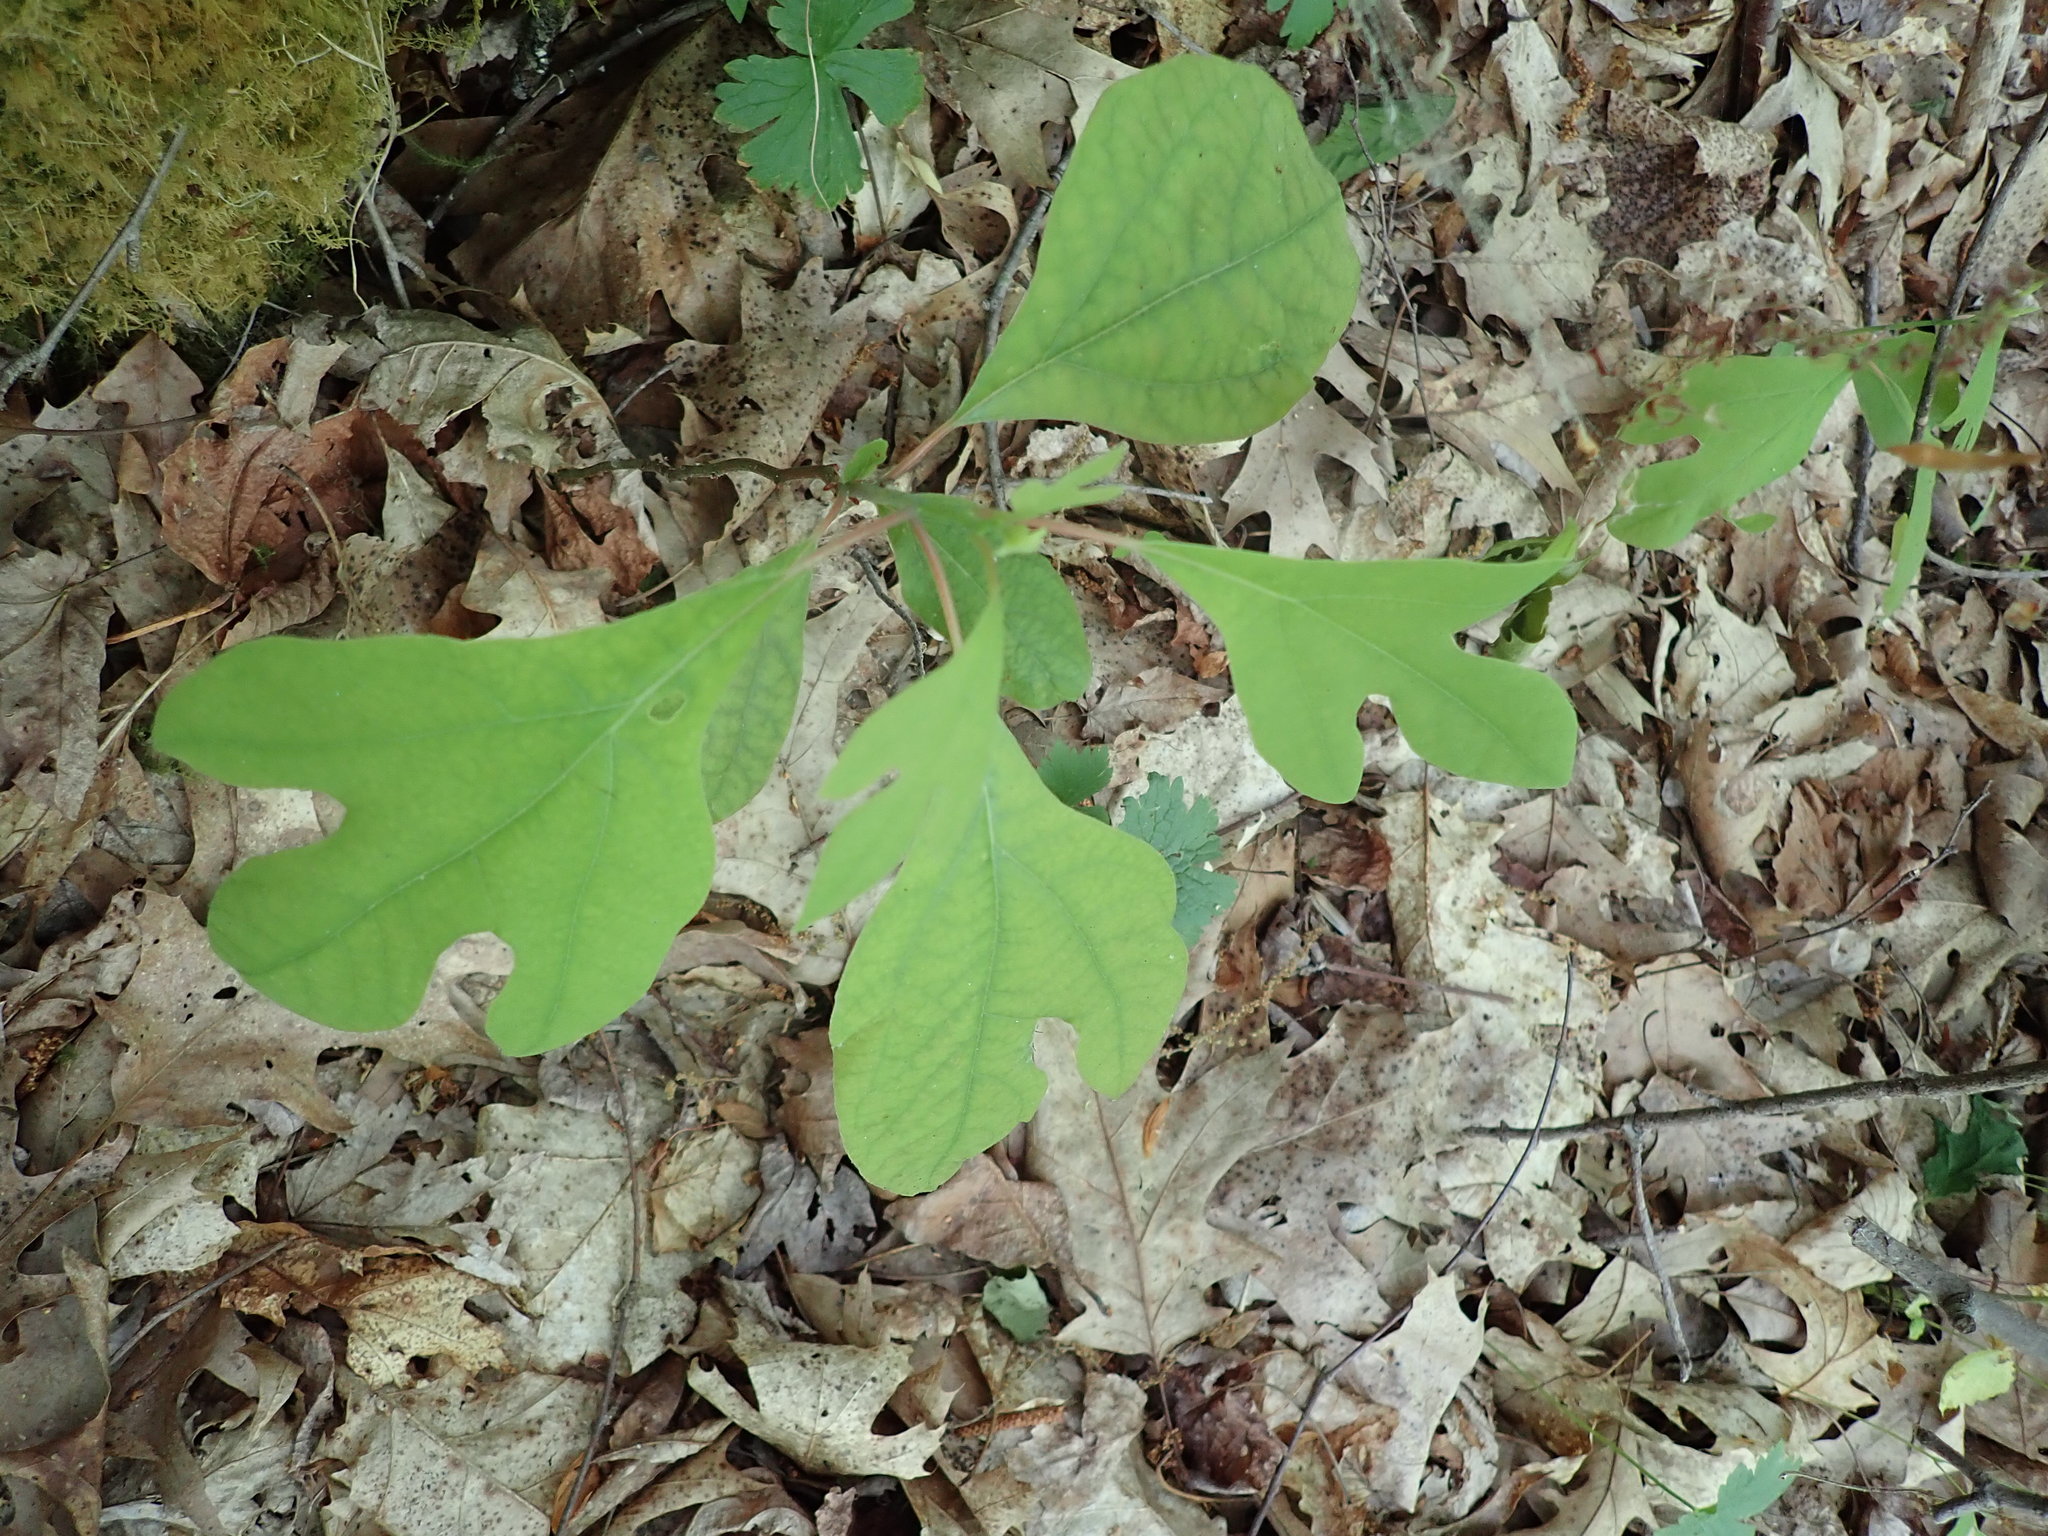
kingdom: Plantae
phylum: Tracheophyta
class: Magnoliopsida
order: Laurales
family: Lauraceae
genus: Sassafras
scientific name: Sassafras albidum
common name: Sassafras
